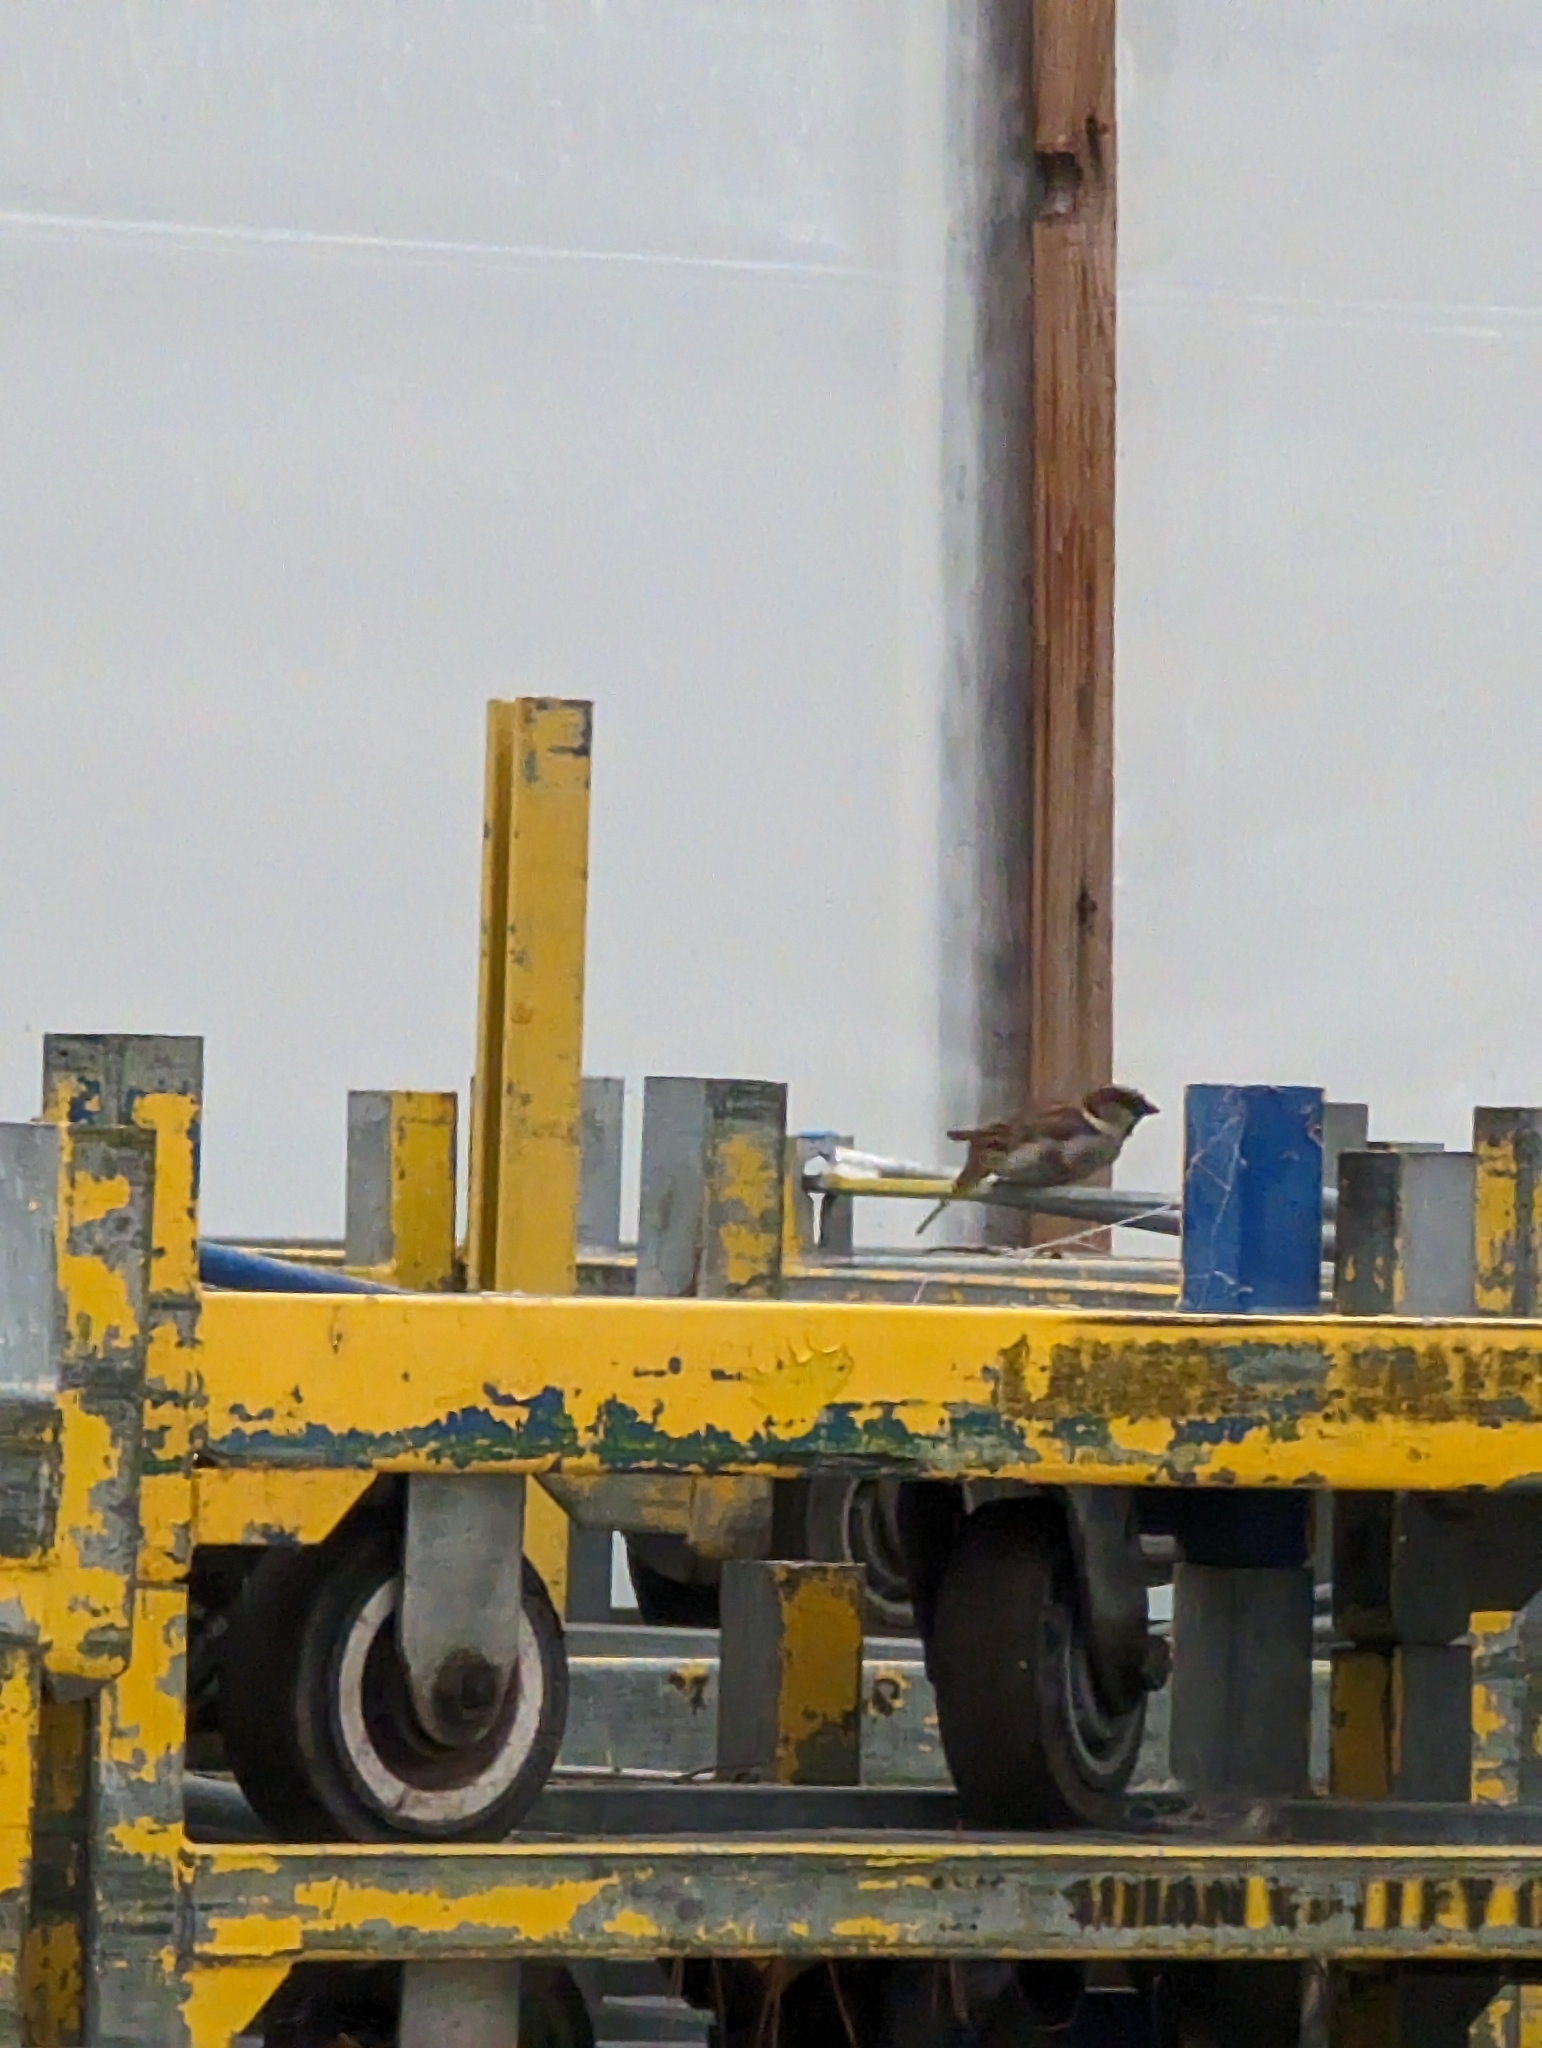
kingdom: Animalia
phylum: Chordata
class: Aves
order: Passeriformes
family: Passeridae
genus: Passer
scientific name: Passer domesticus
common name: House sparrow
